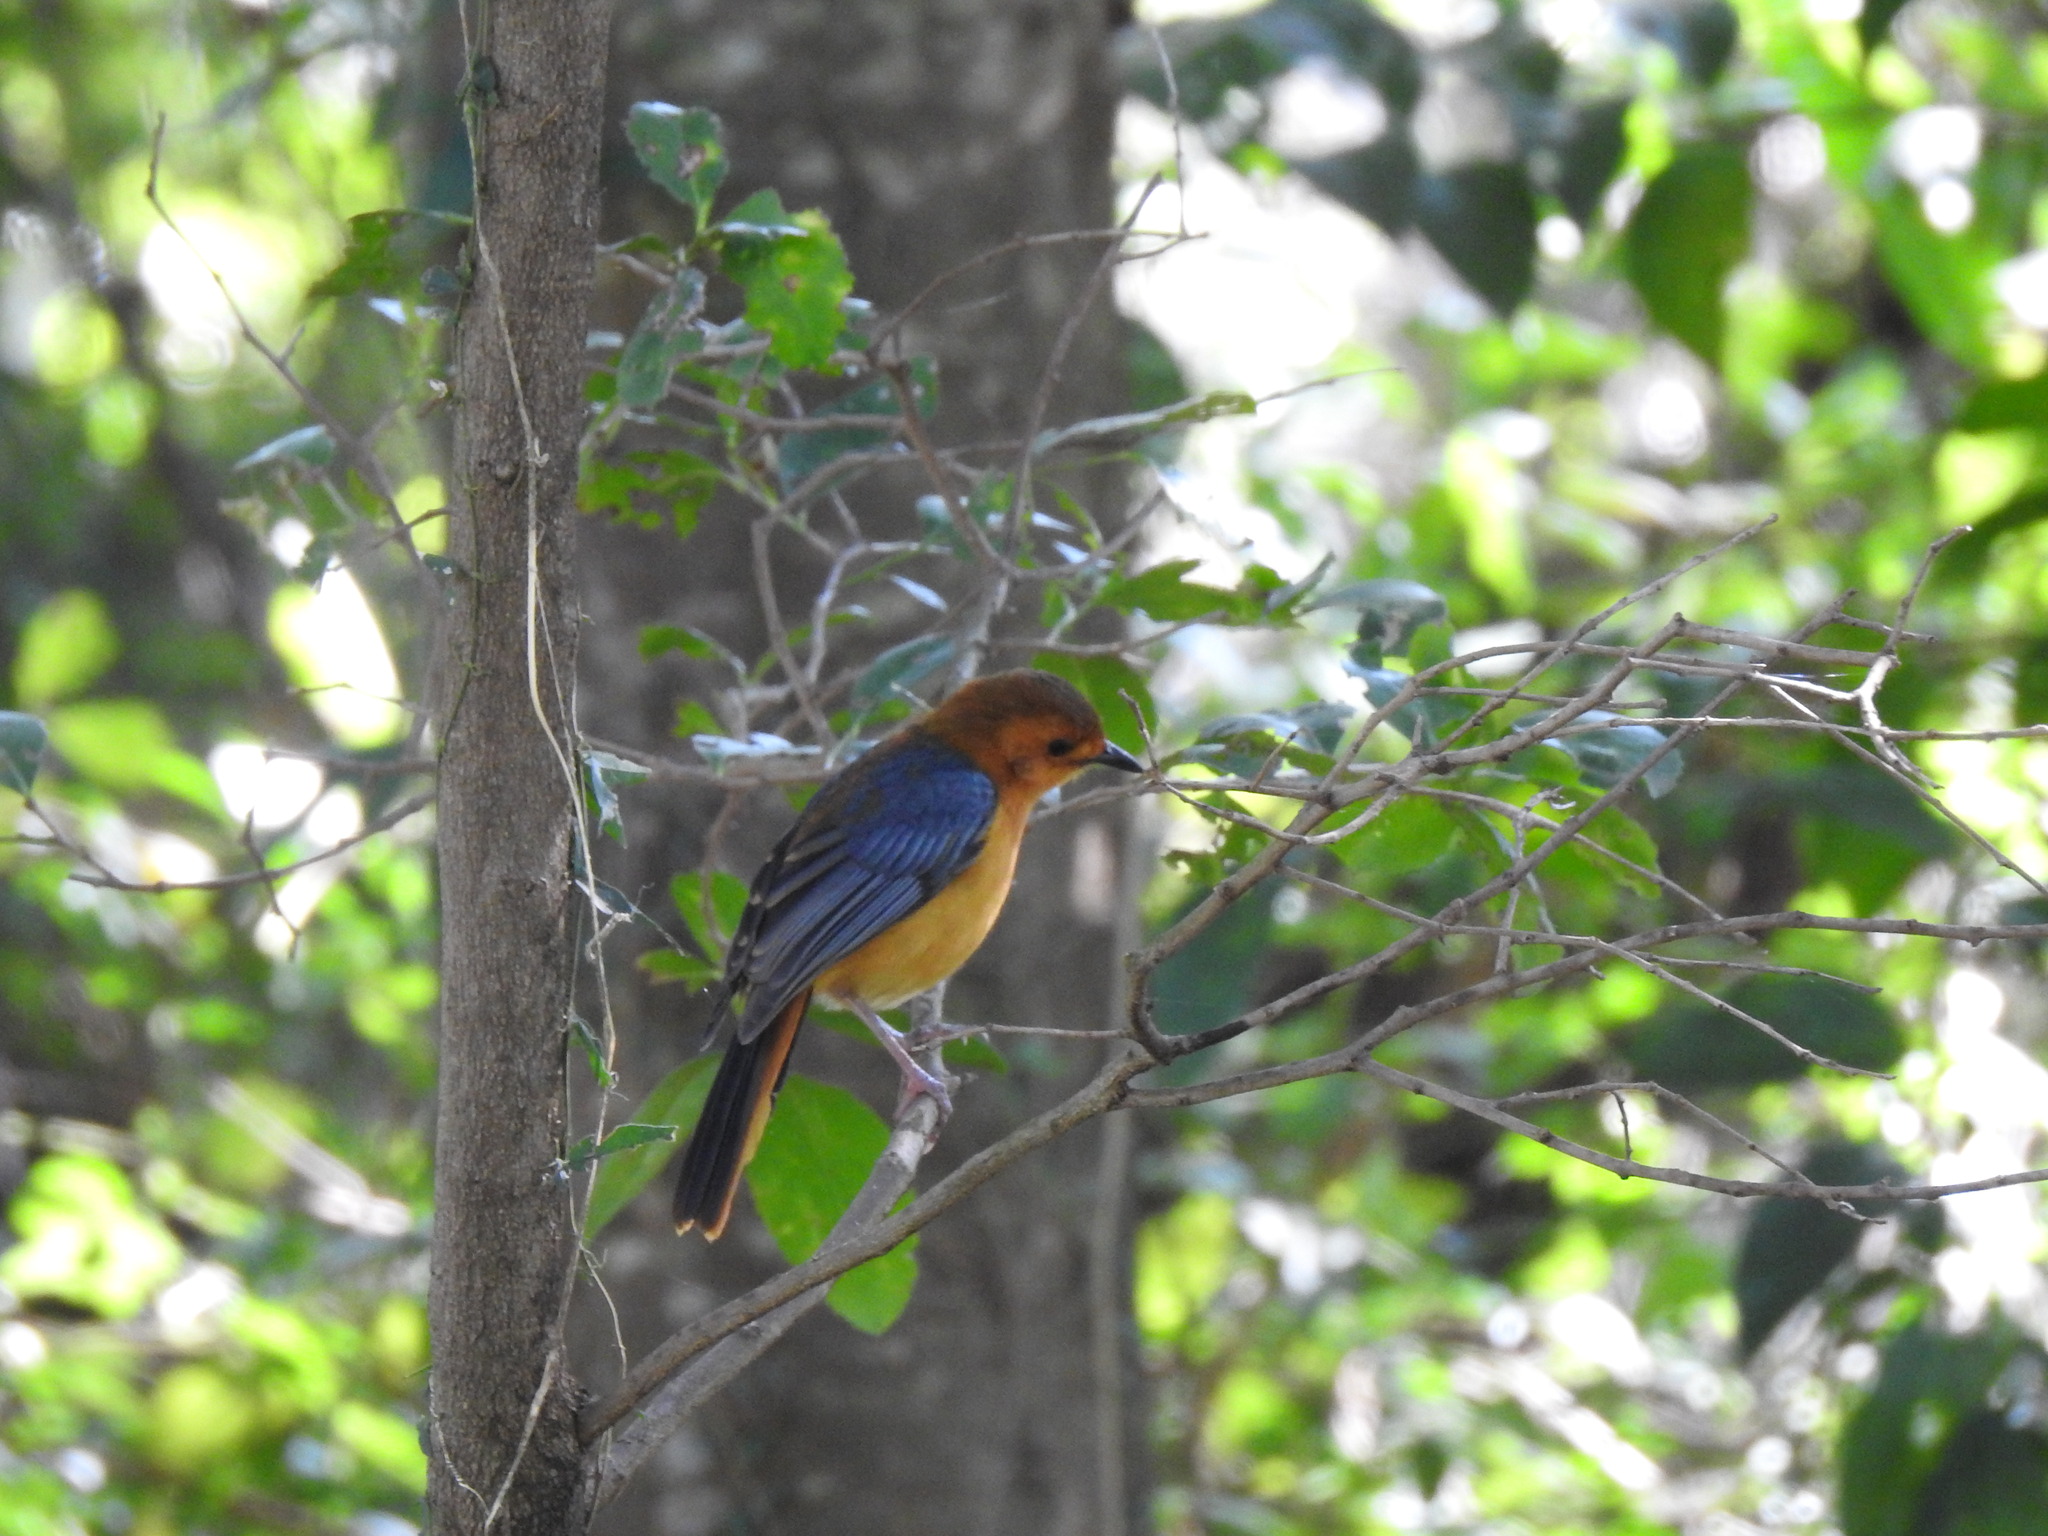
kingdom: Animalia
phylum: Chordata
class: Aves
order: Passeriformes
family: Muscicapidae
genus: Cossypha
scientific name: Cossypha natalensis
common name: Red-capped robin-chat
